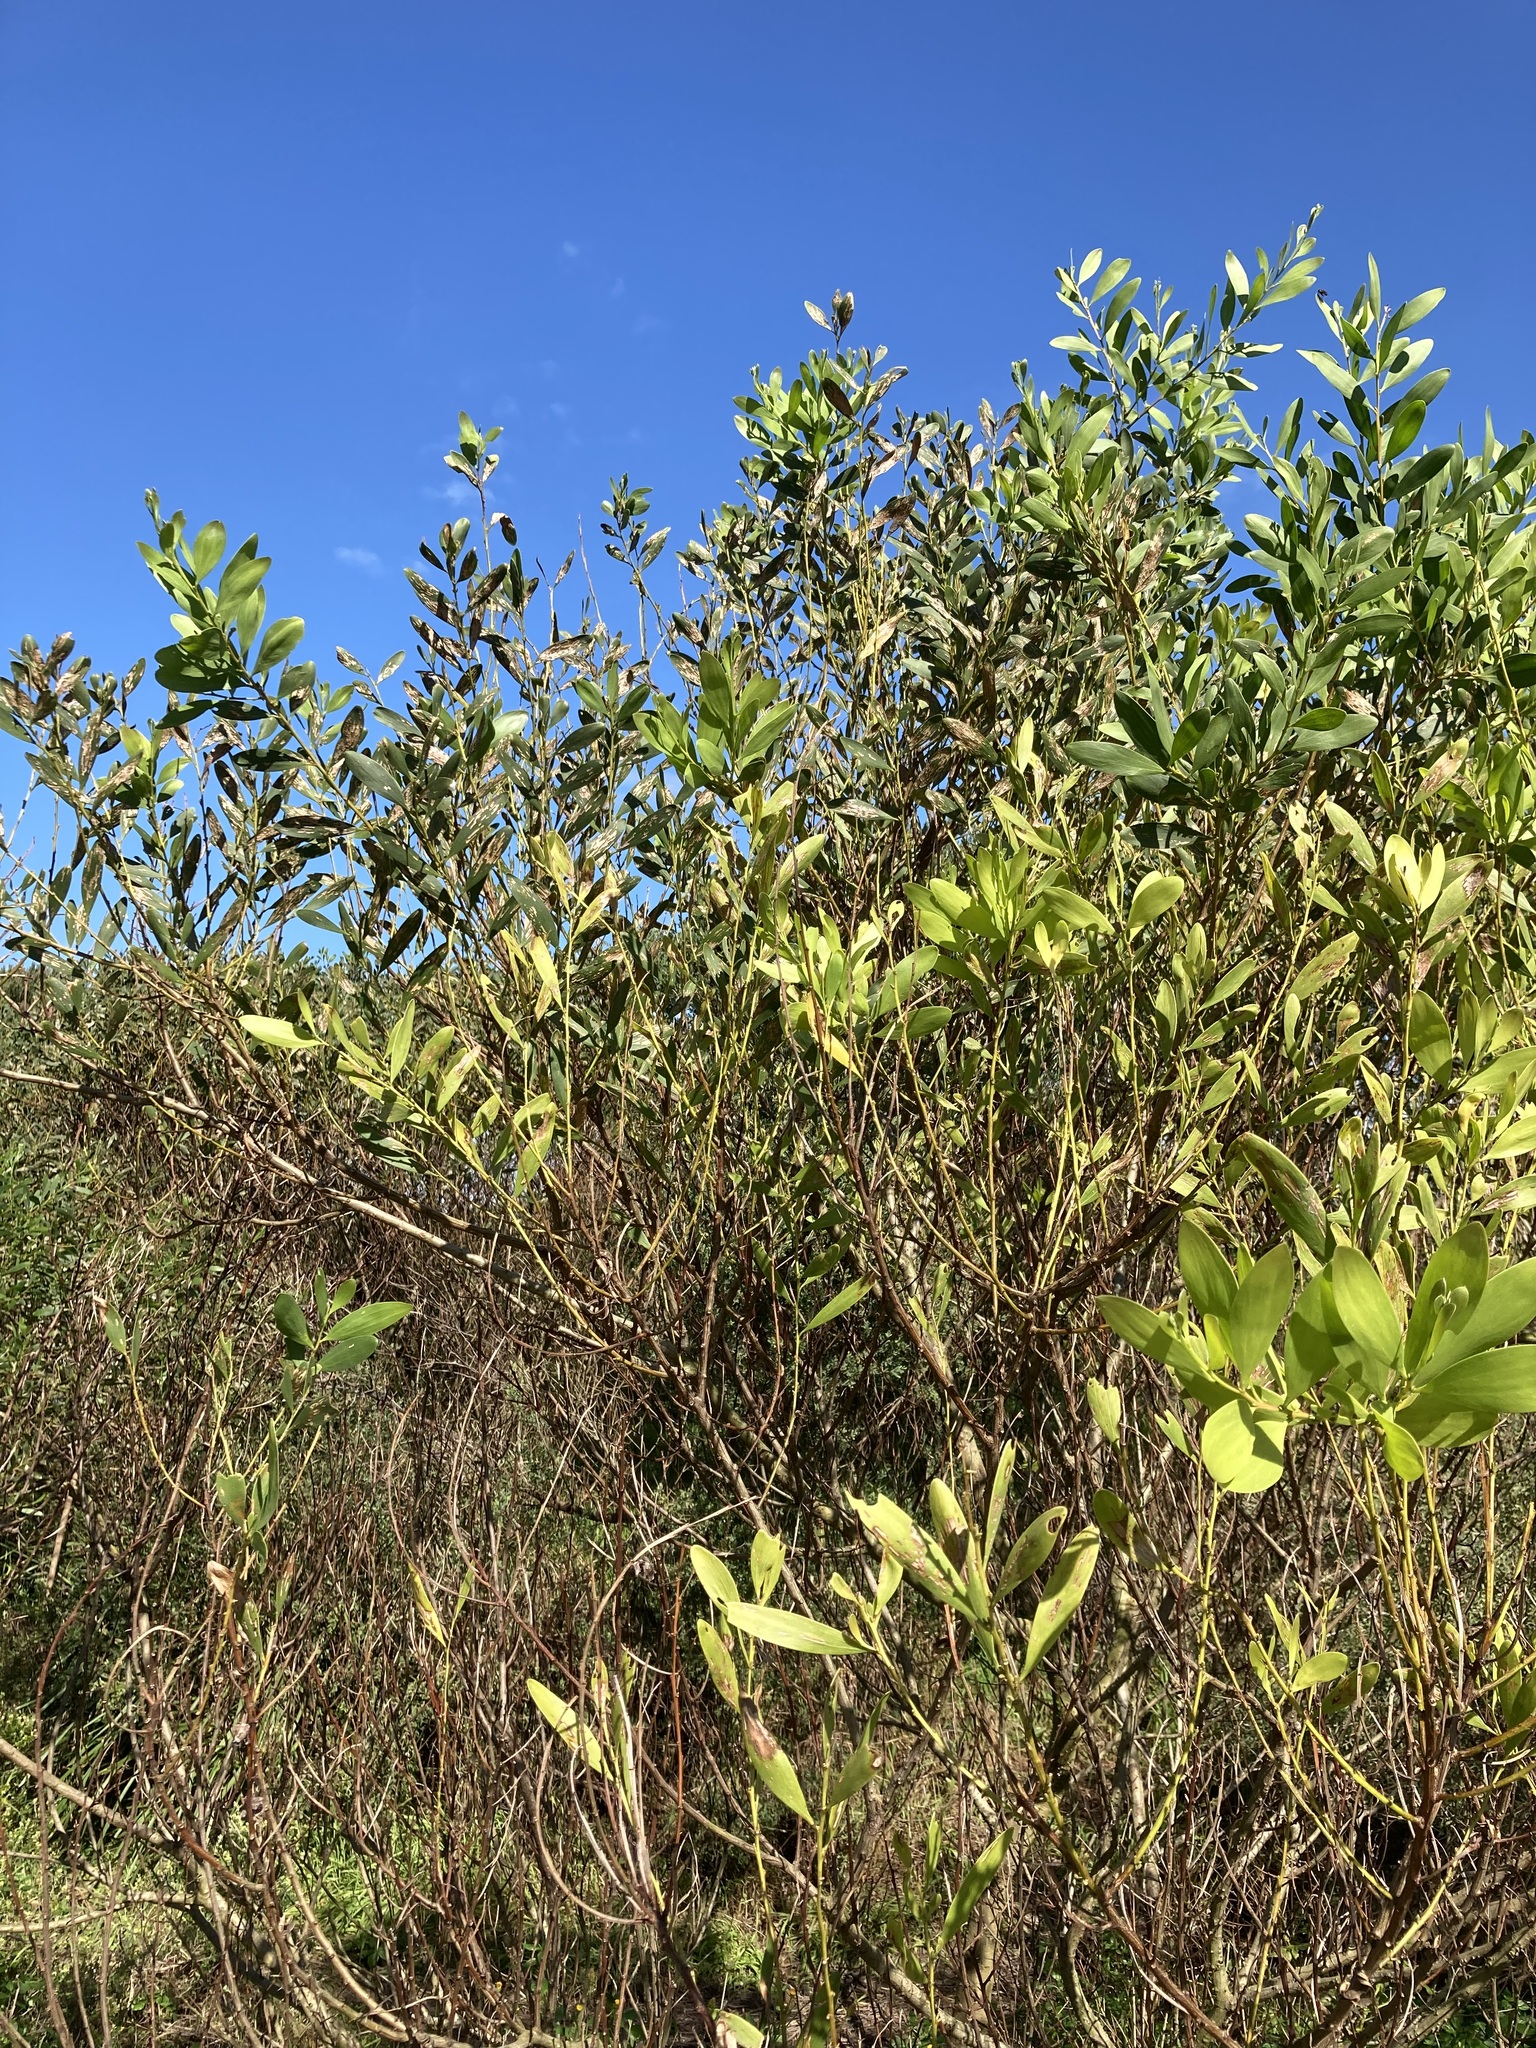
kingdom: Plantae
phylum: Tracheophyta
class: Magnoliopsida
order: Fabales
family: Fabaceae
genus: Acacia
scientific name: Acacia longifolia
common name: Sydney golden wattle
